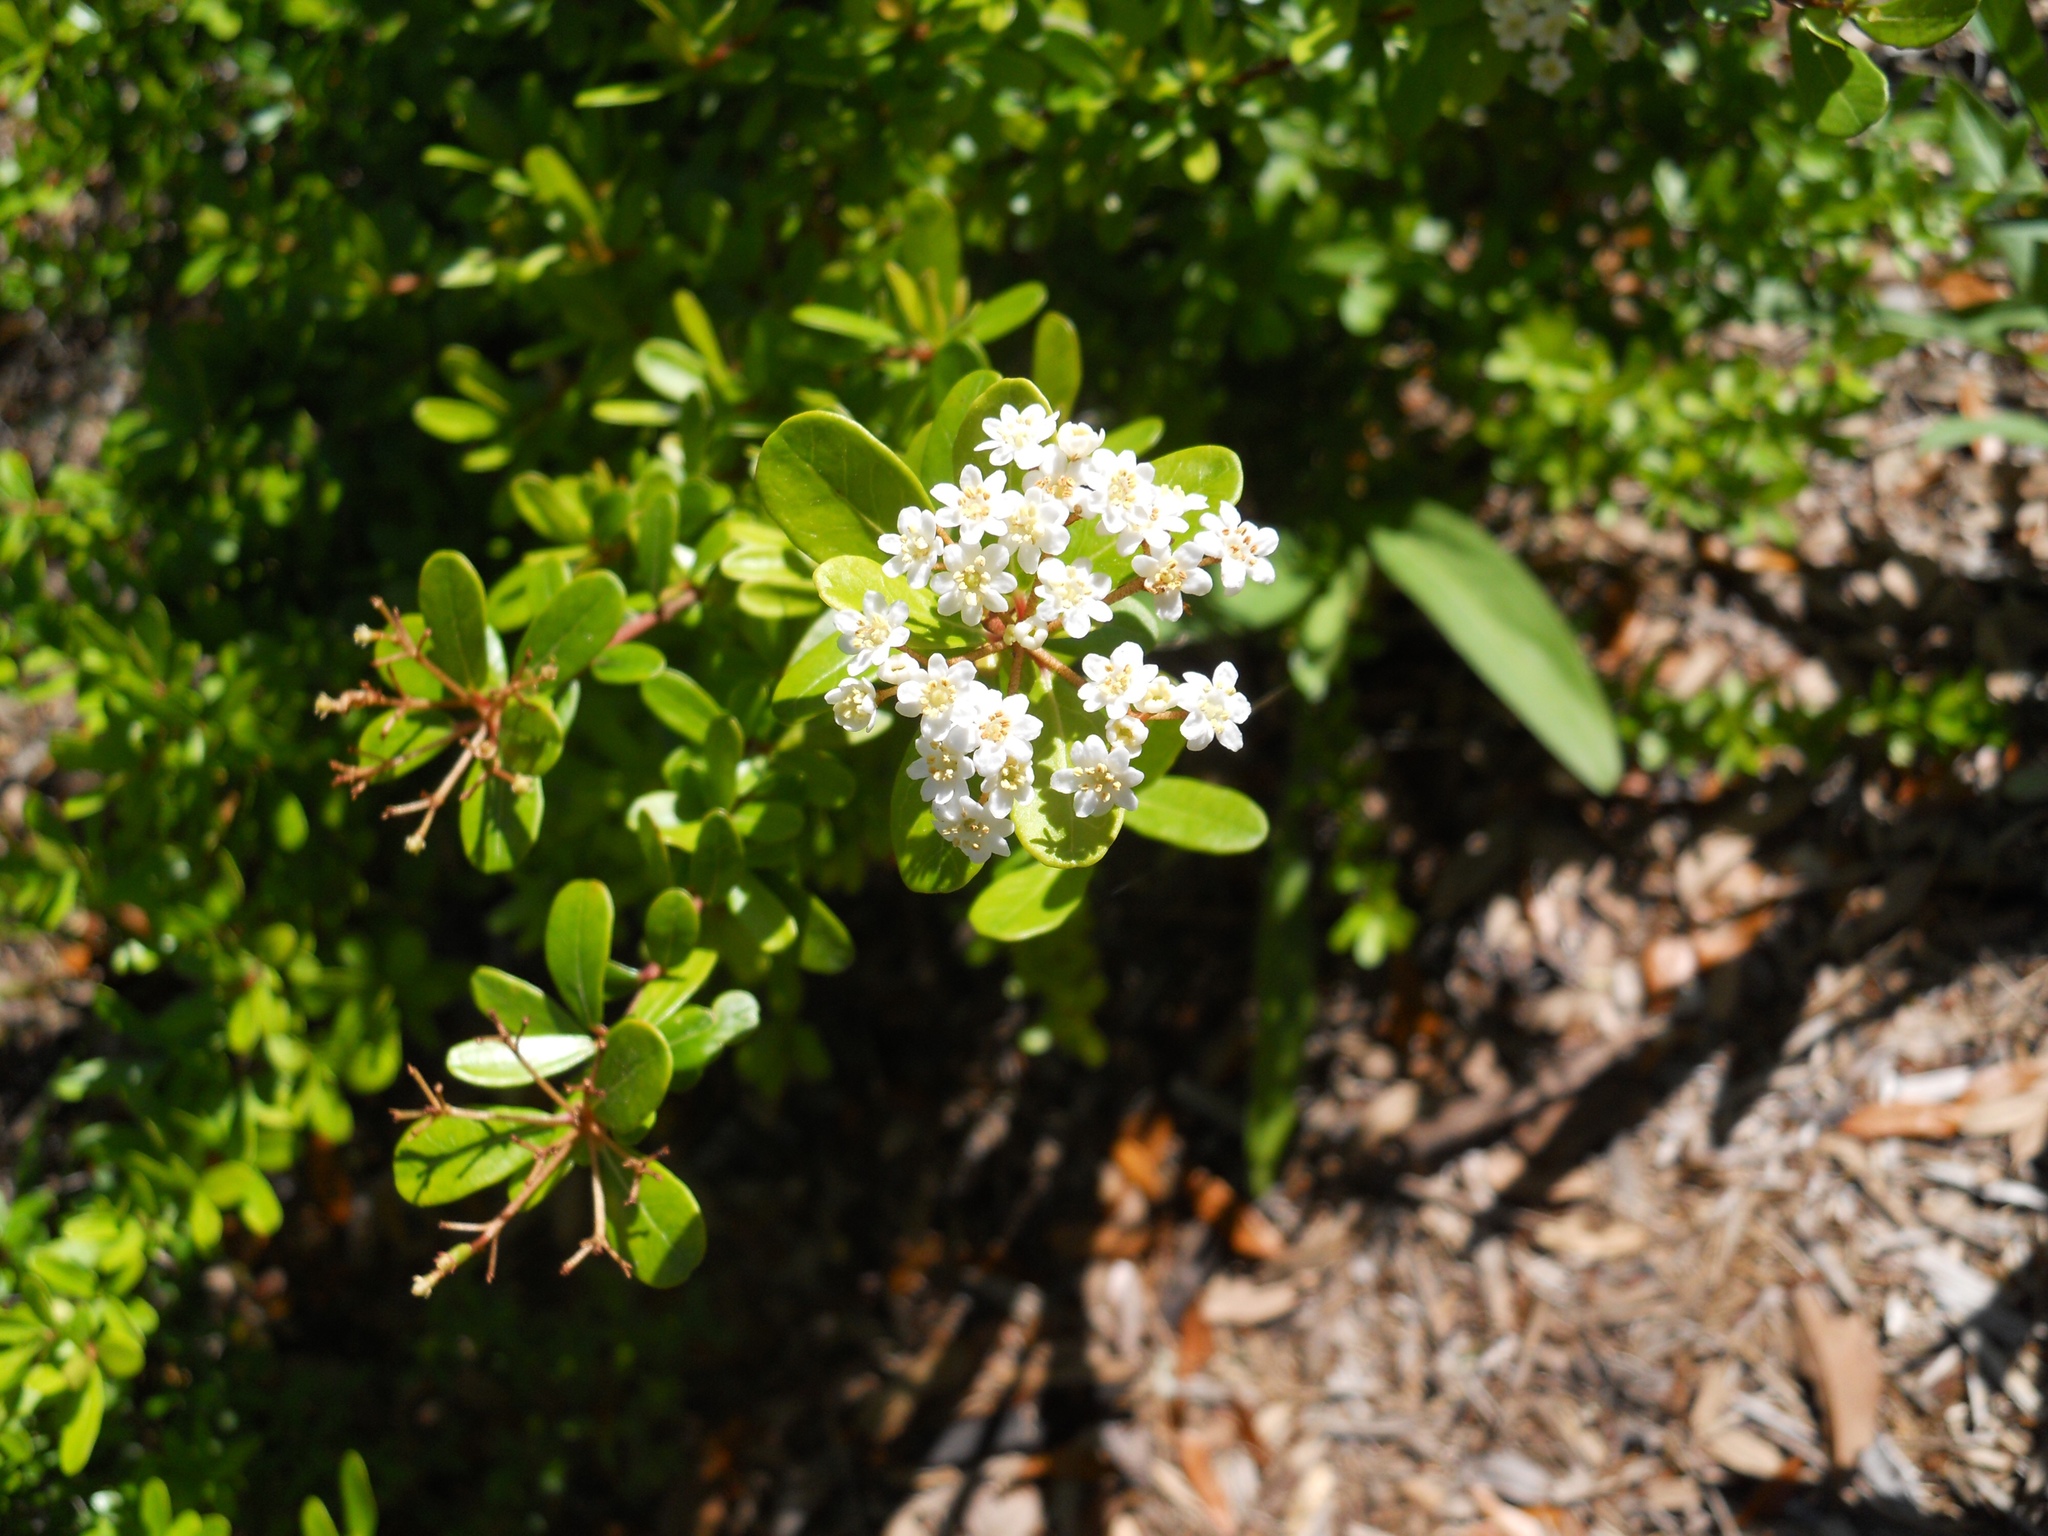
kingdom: Plantae
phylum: Tracheophyta
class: Magnoliopsida
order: Dipsacales
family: Viburnaceae
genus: Viburnum
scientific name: Viburnum obovatum
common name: Walter's viburnum
